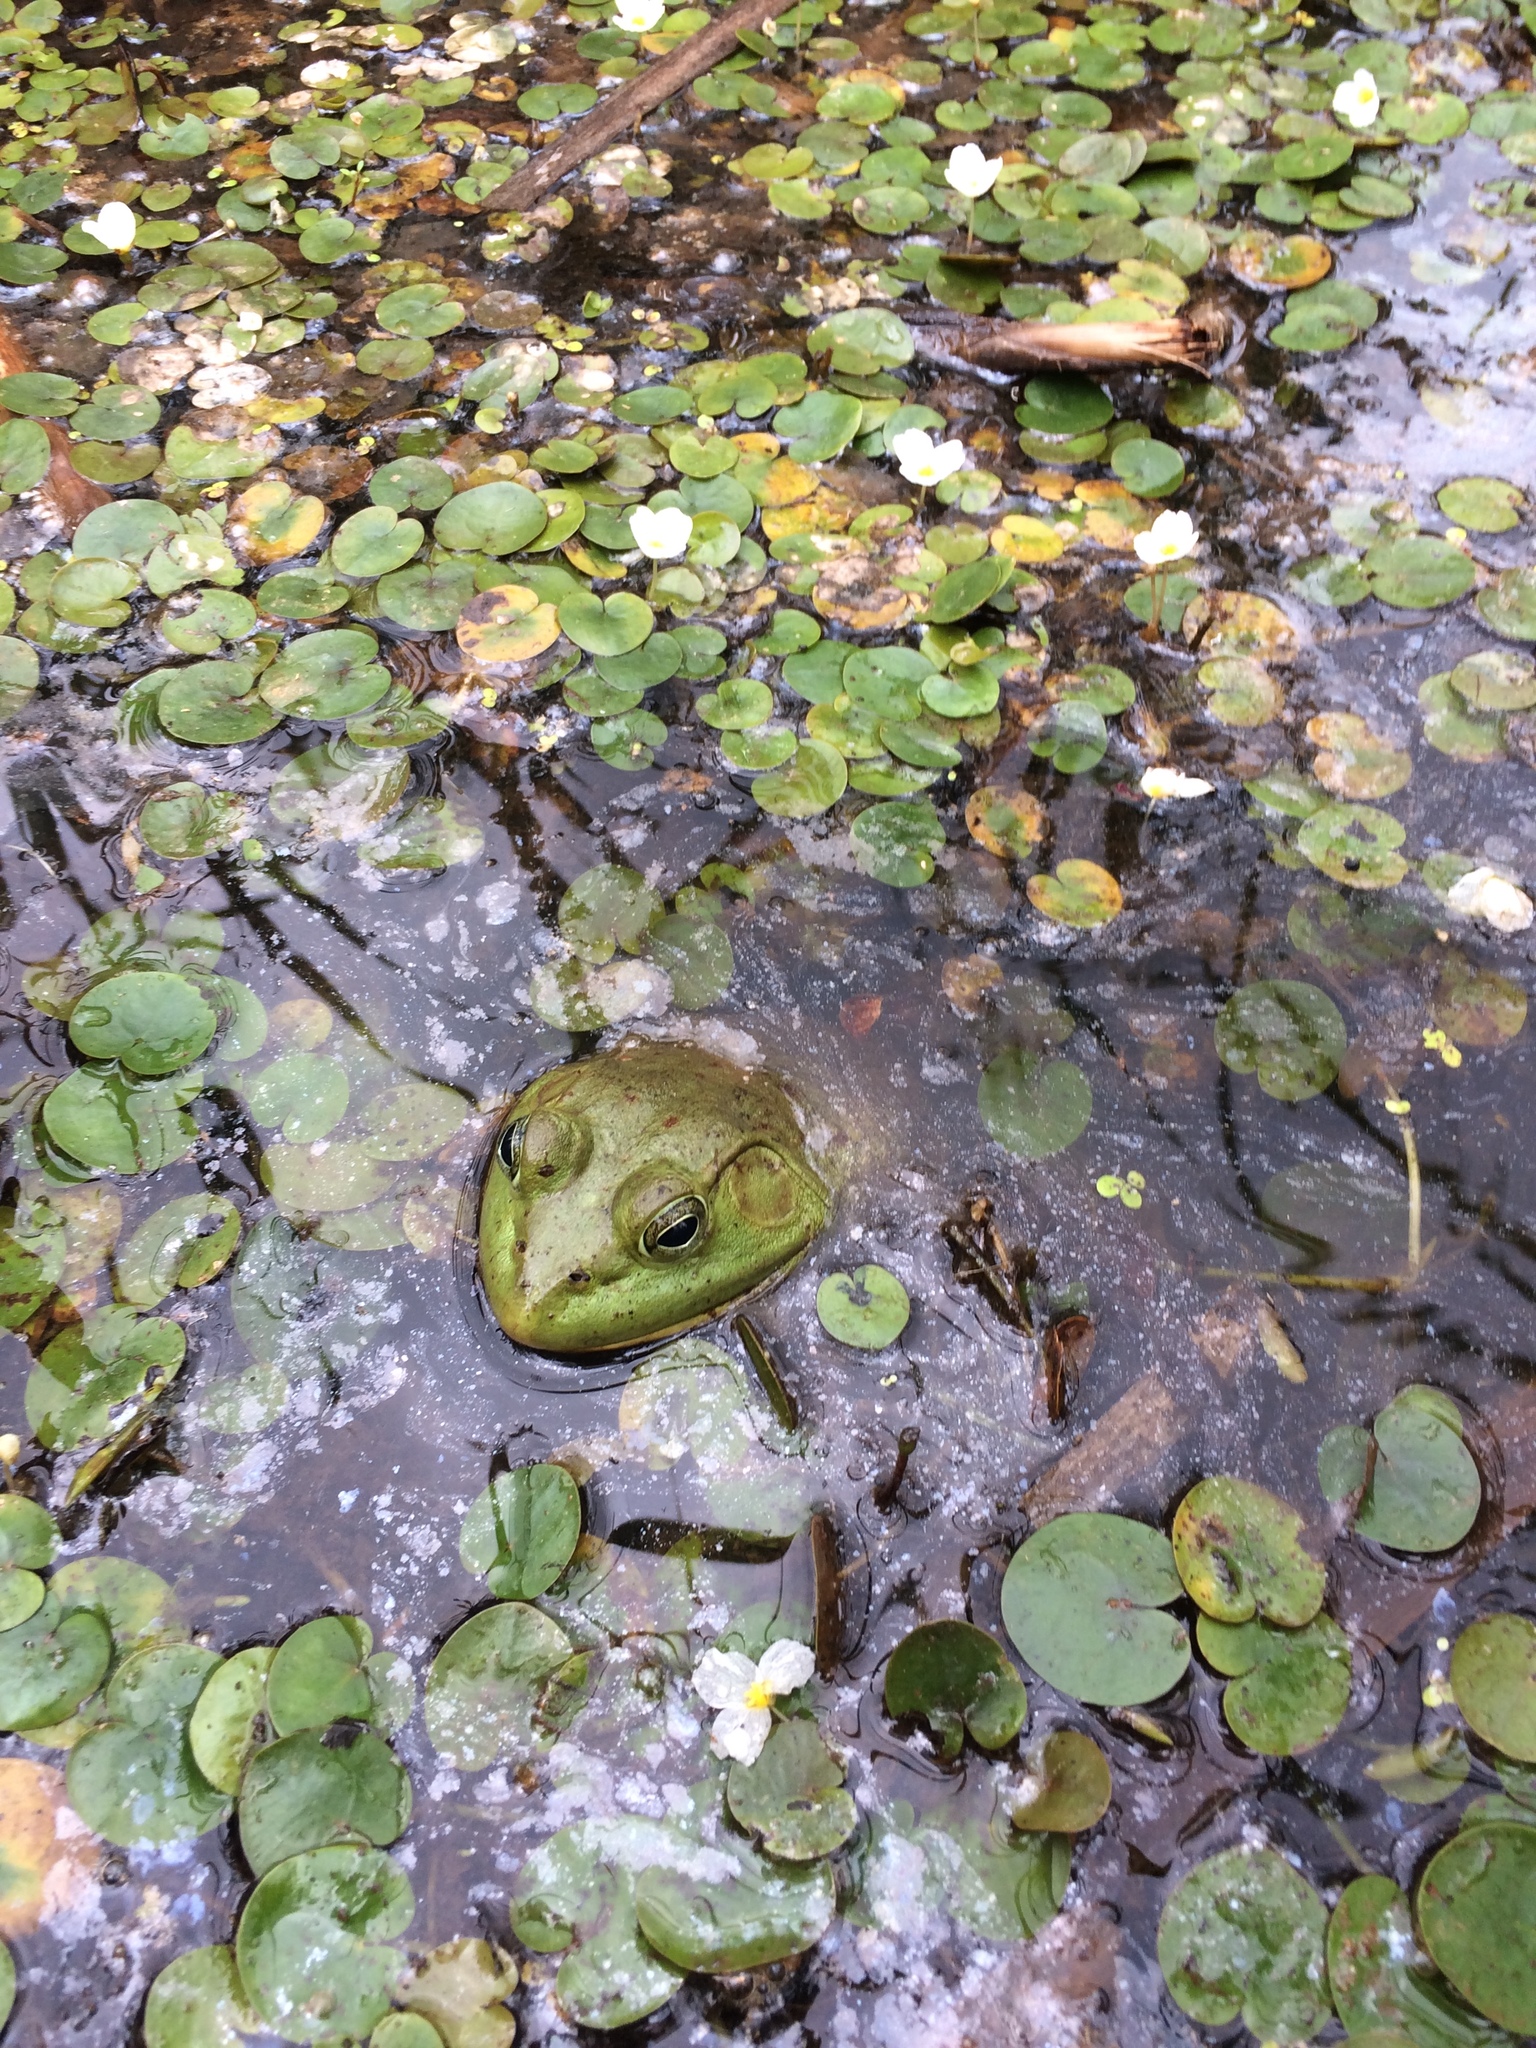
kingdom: Animalia
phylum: Chordata
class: Amphibia
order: Anura
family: Ranidae
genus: Lithobates
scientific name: Lithobates catesbeianus
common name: American bullfrog
